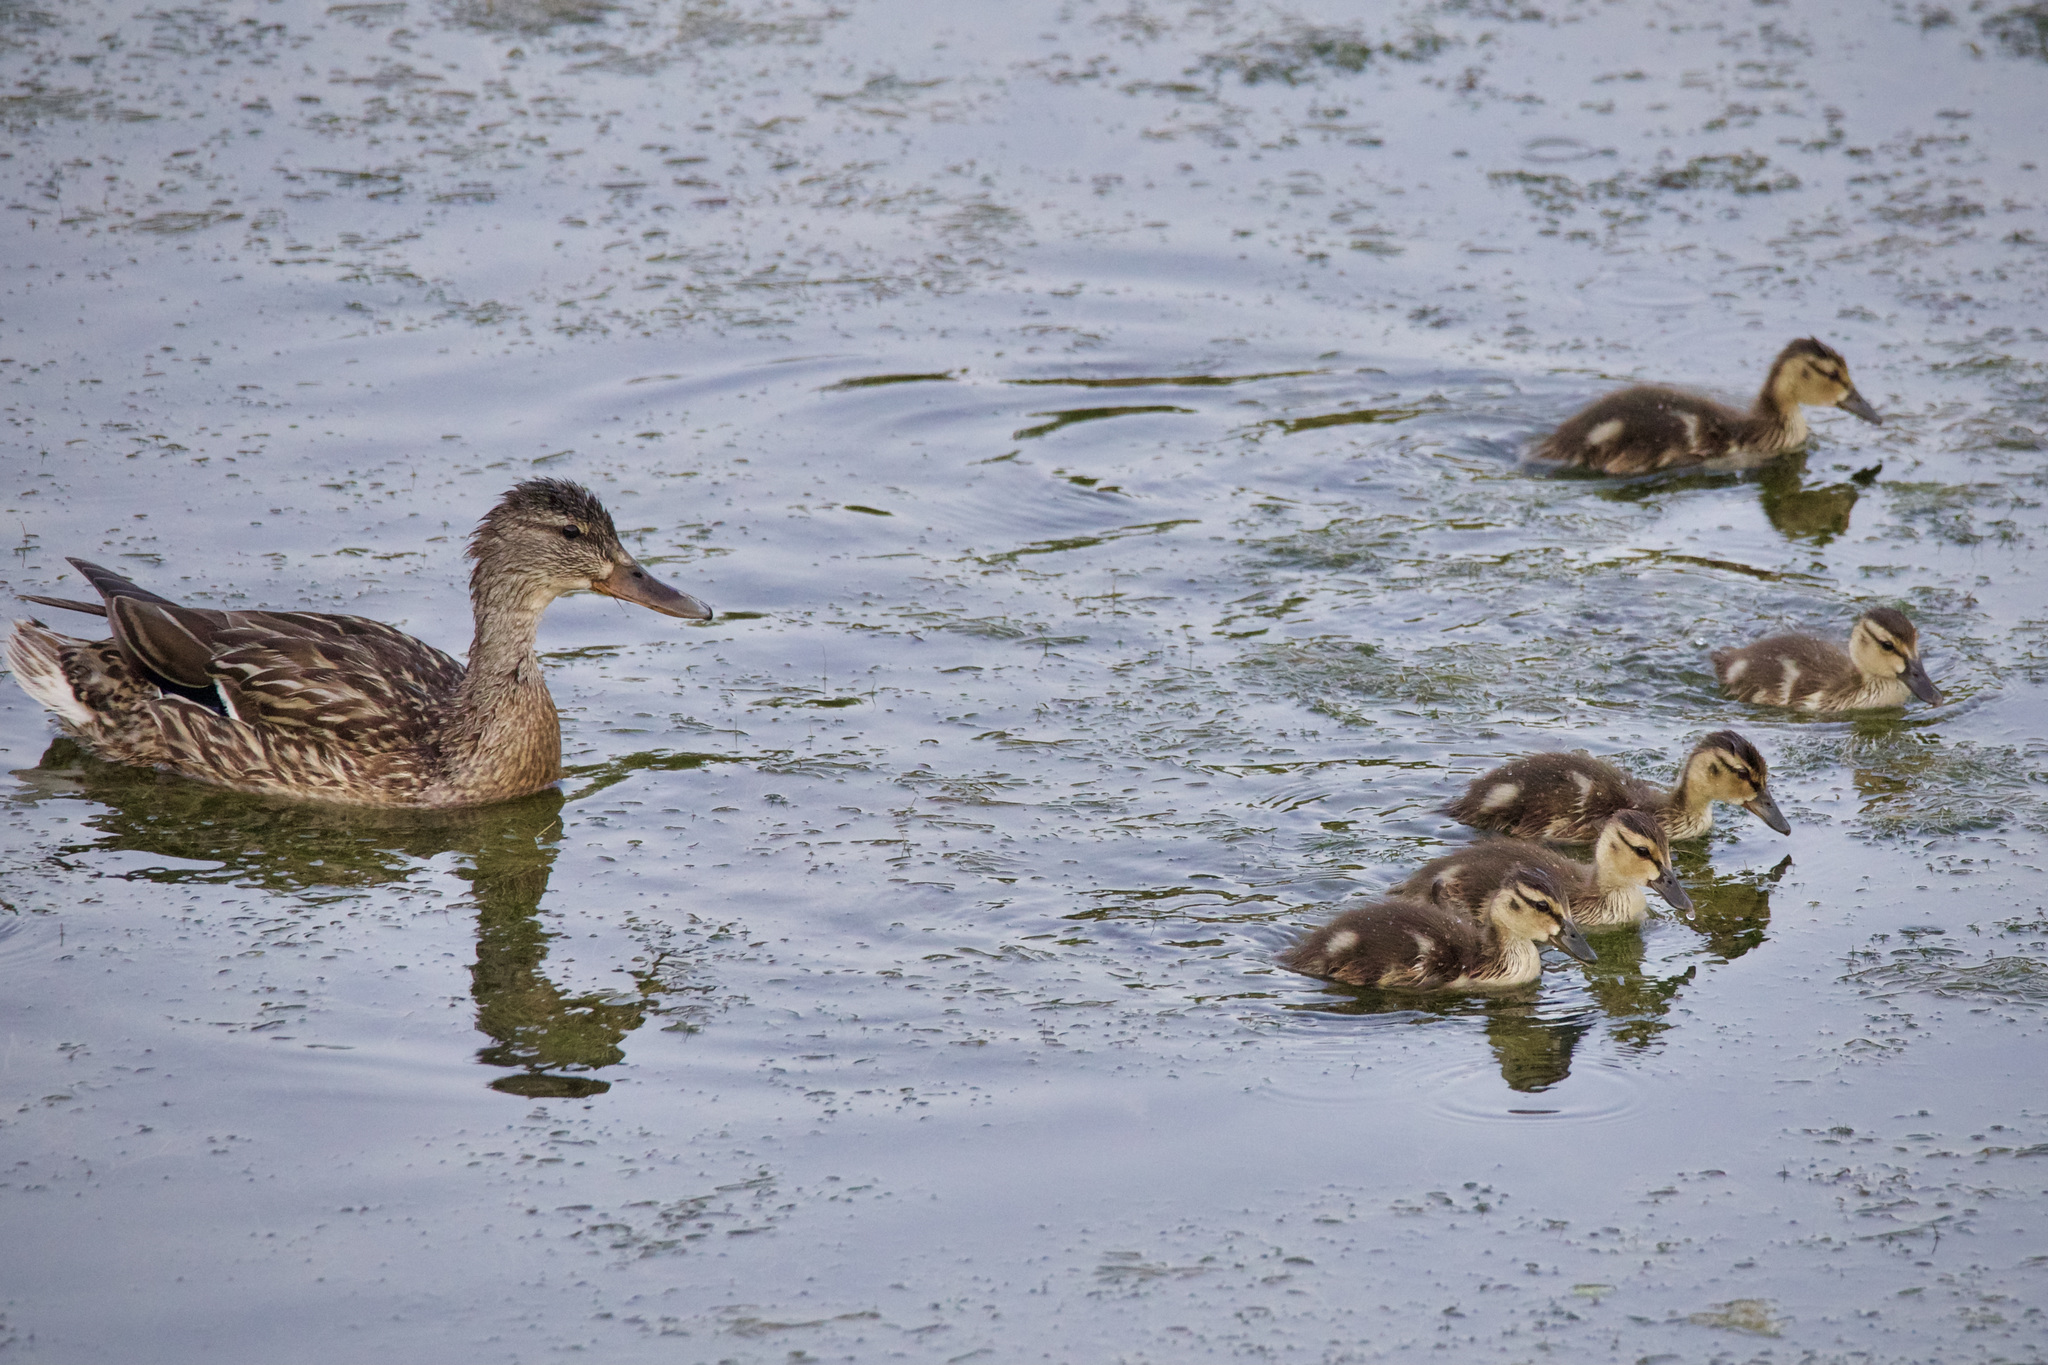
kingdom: Animalia
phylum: Chordata
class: Aves
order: Anseriformes
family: Anatidae
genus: Anas
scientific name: Anas platyrhynchos
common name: Mallard
